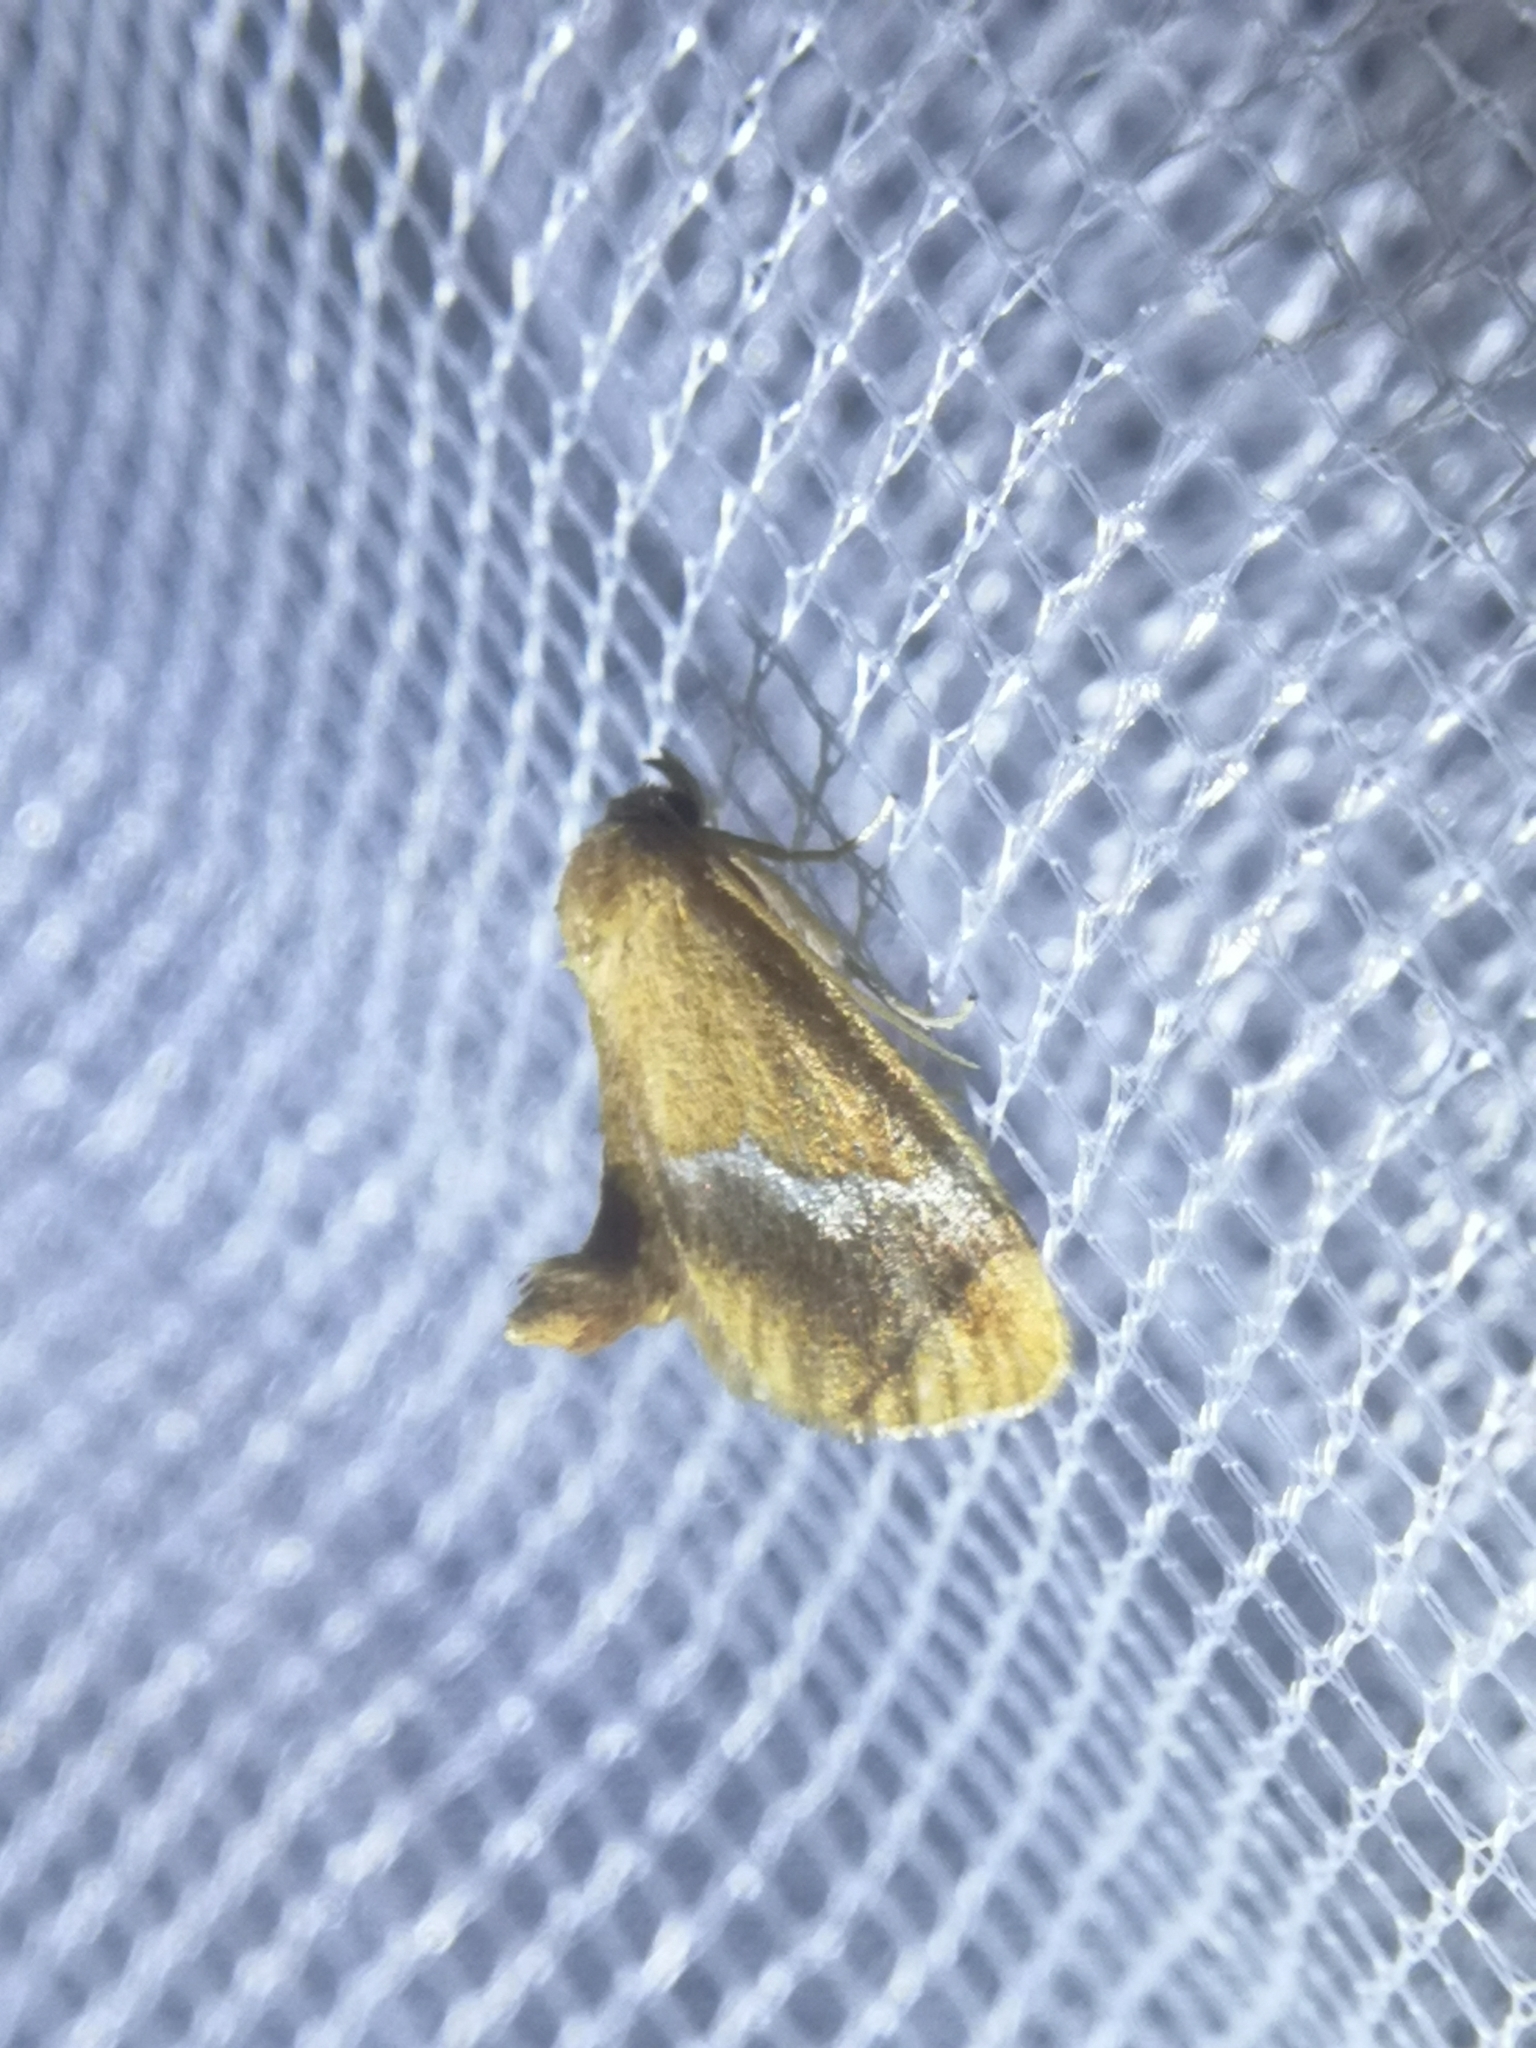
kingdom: Animalia
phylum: Arthropoda
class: Insecta
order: Lepidoptera
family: Limacodidae
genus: Lithacodes
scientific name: Lithacodes fasciola
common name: Yellow-shouldered slug moth
